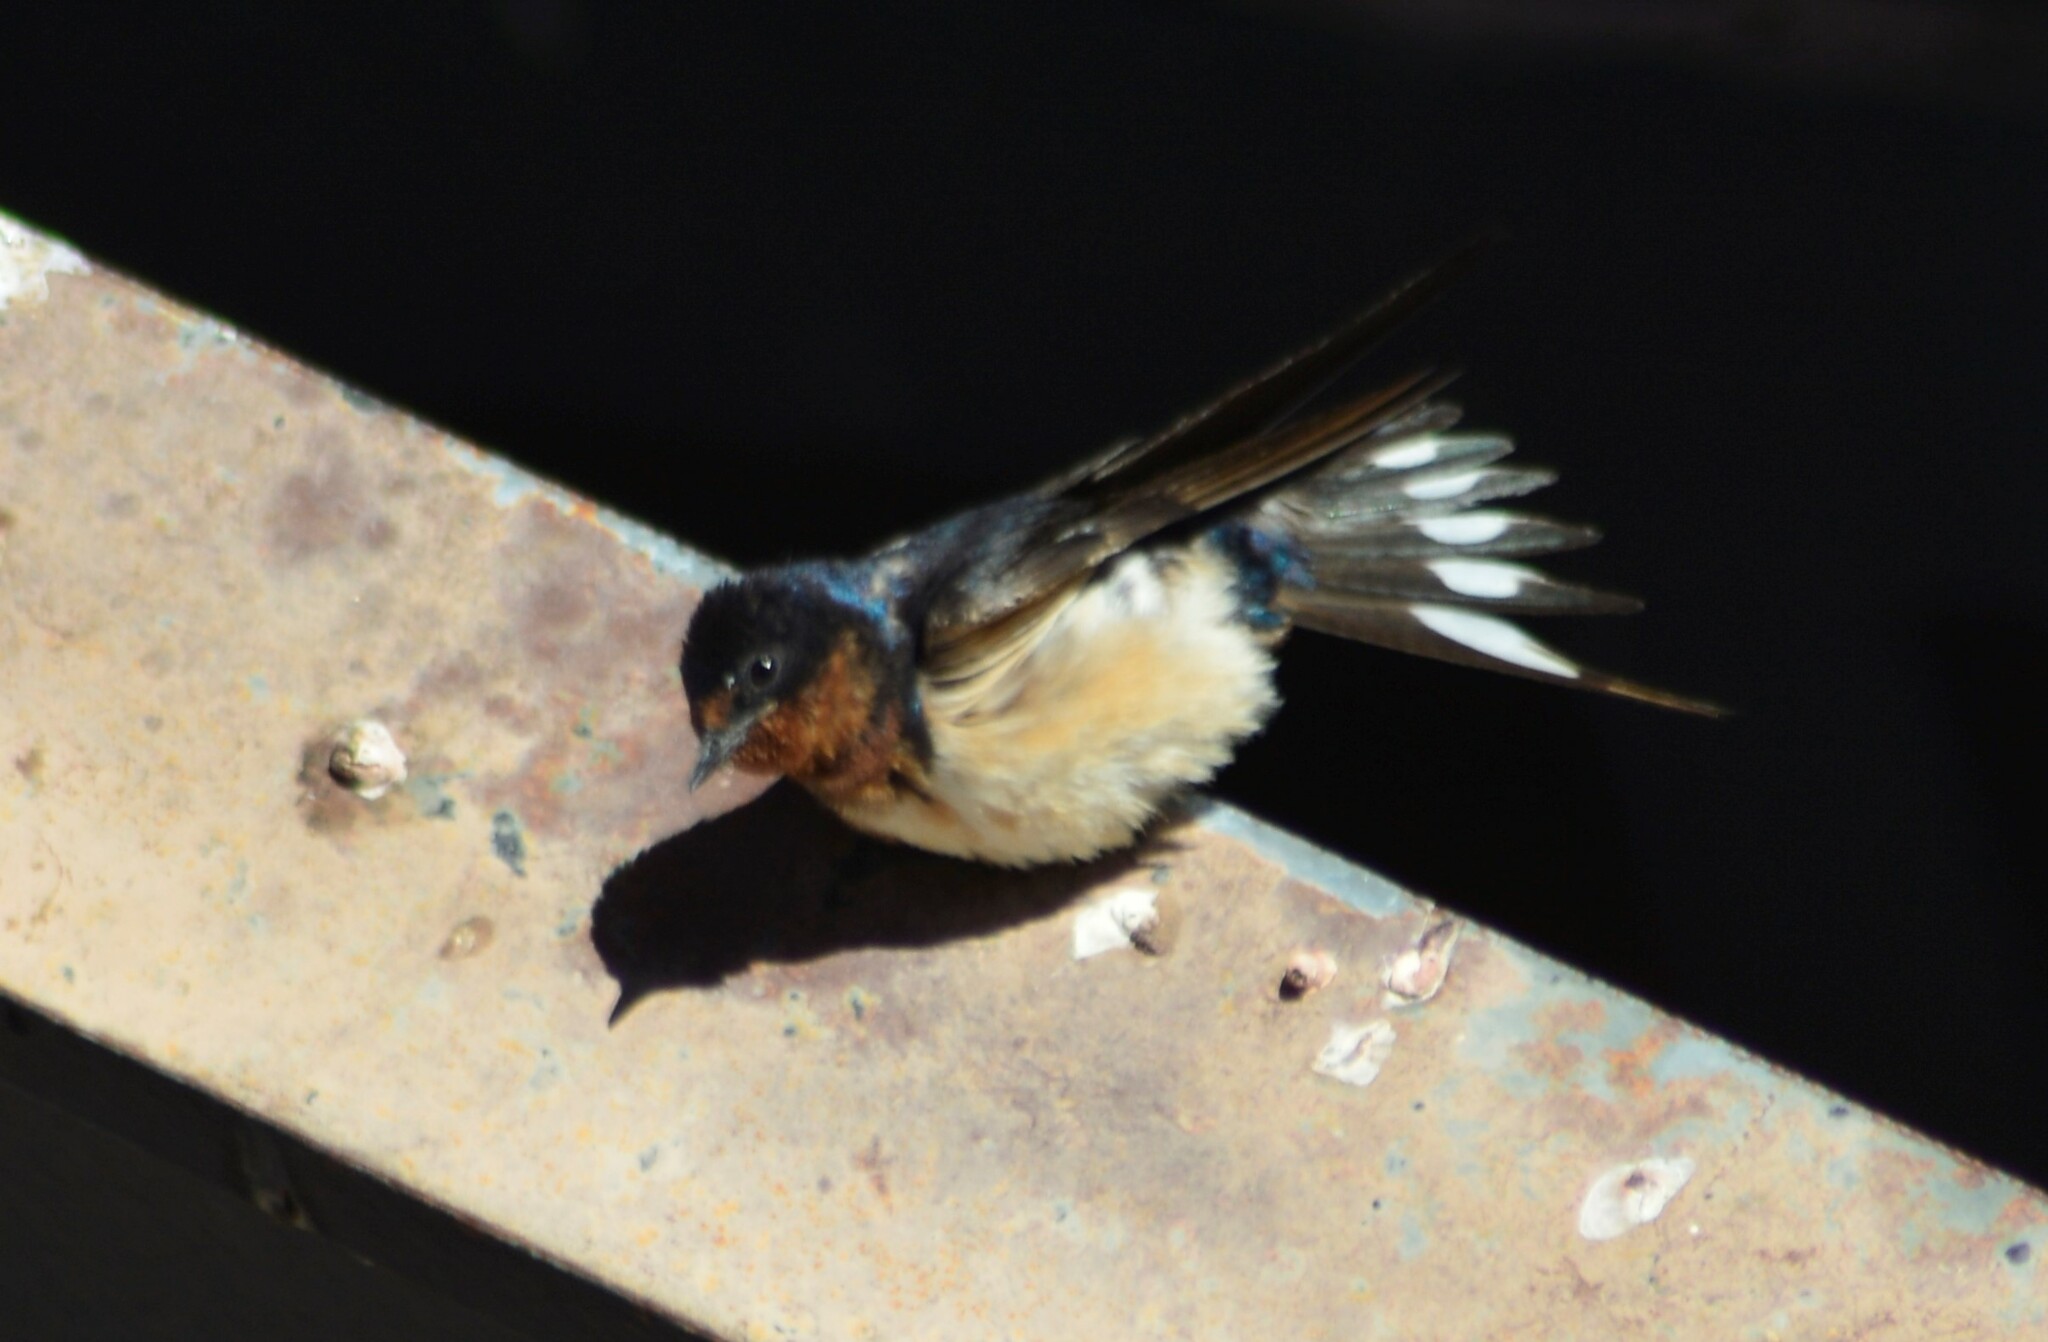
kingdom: Animalia
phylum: Chordata
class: Aves
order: Passeriformes
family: Hirundinidae
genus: Hirundo
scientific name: Hirundo rustica
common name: Barn swallow
